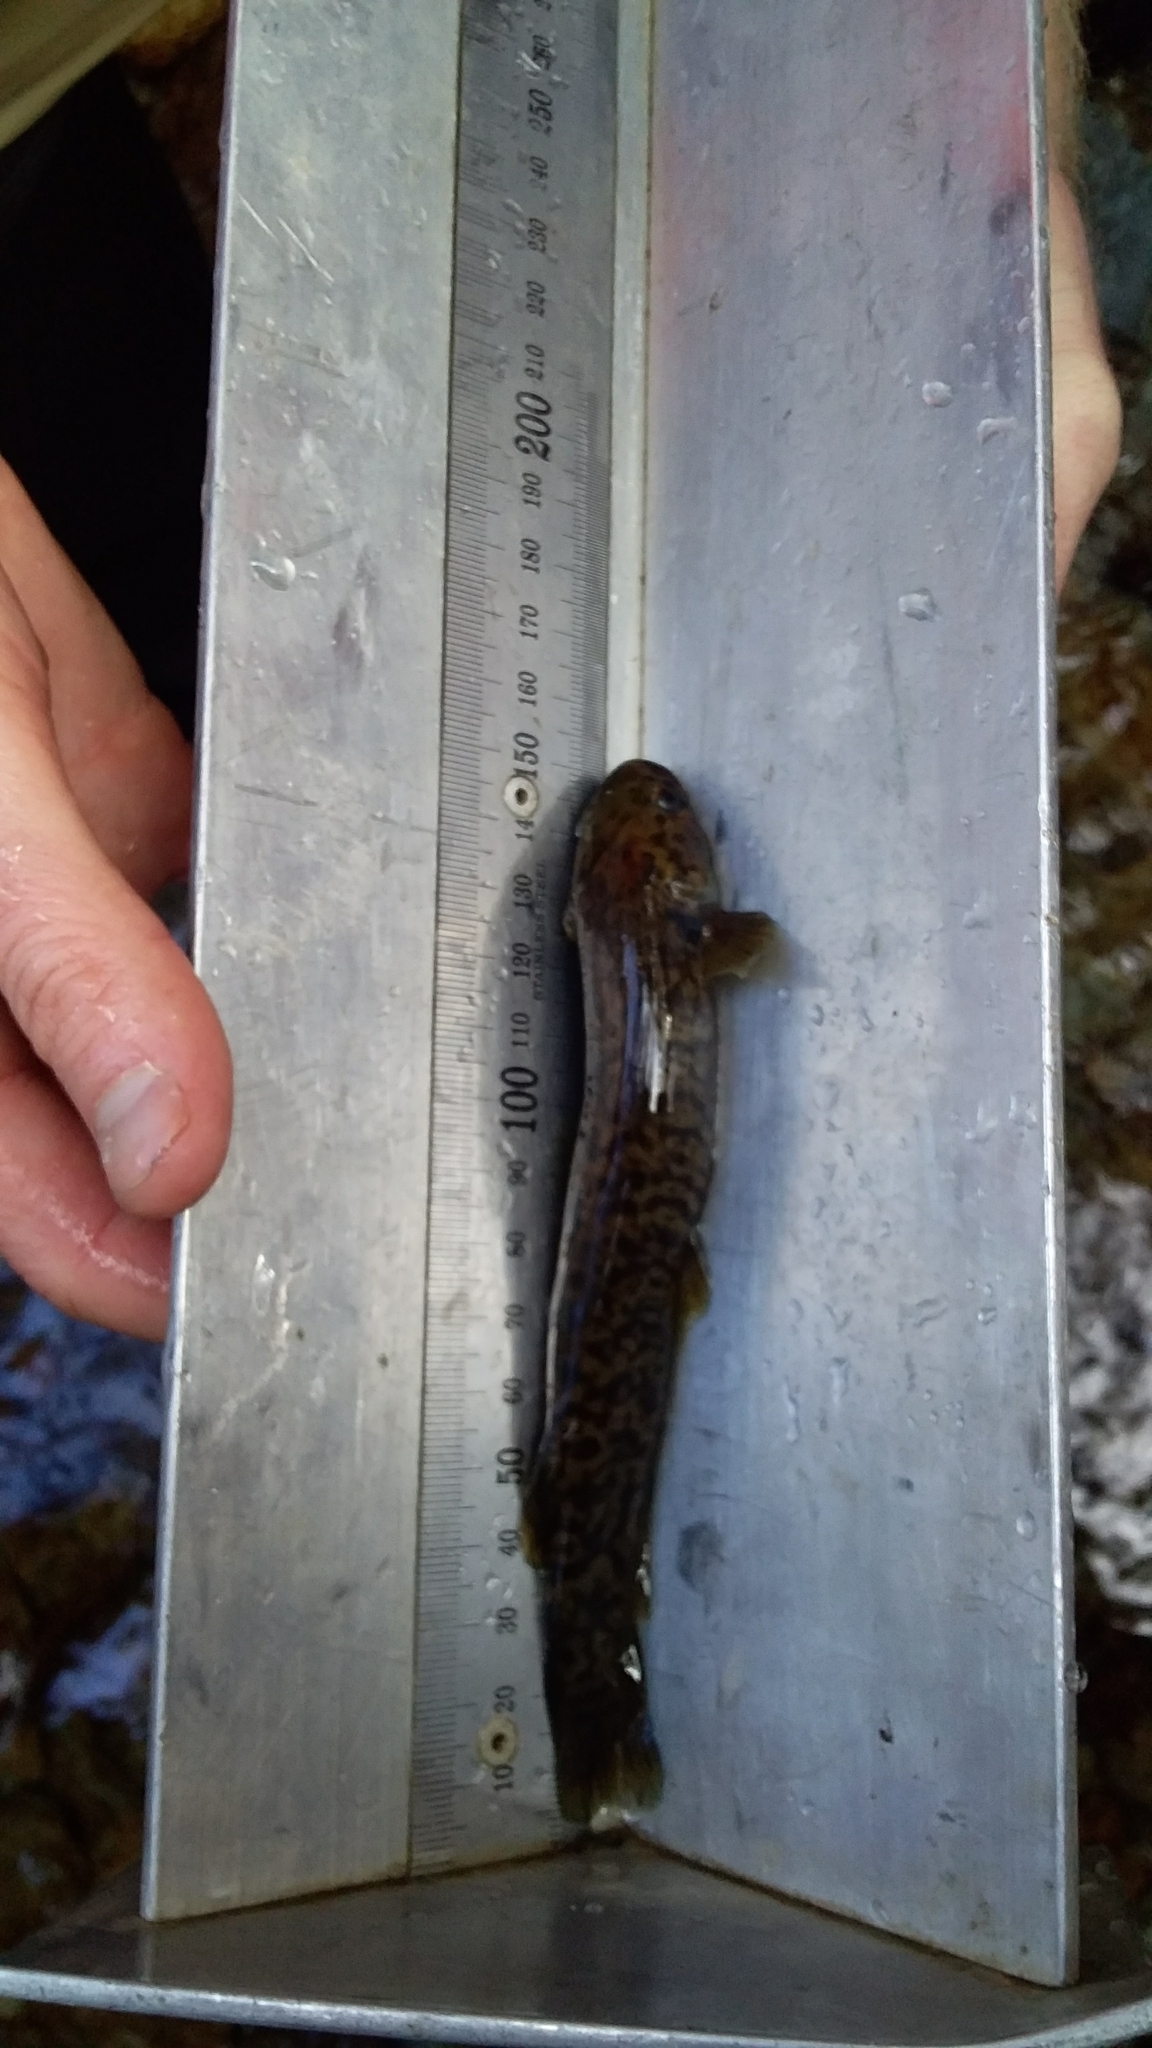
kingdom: Animalia
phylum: Chordata
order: Osmeriformes
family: Galaxiidae
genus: Galaxias
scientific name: Galaxias brevipinnis
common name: Koaro
